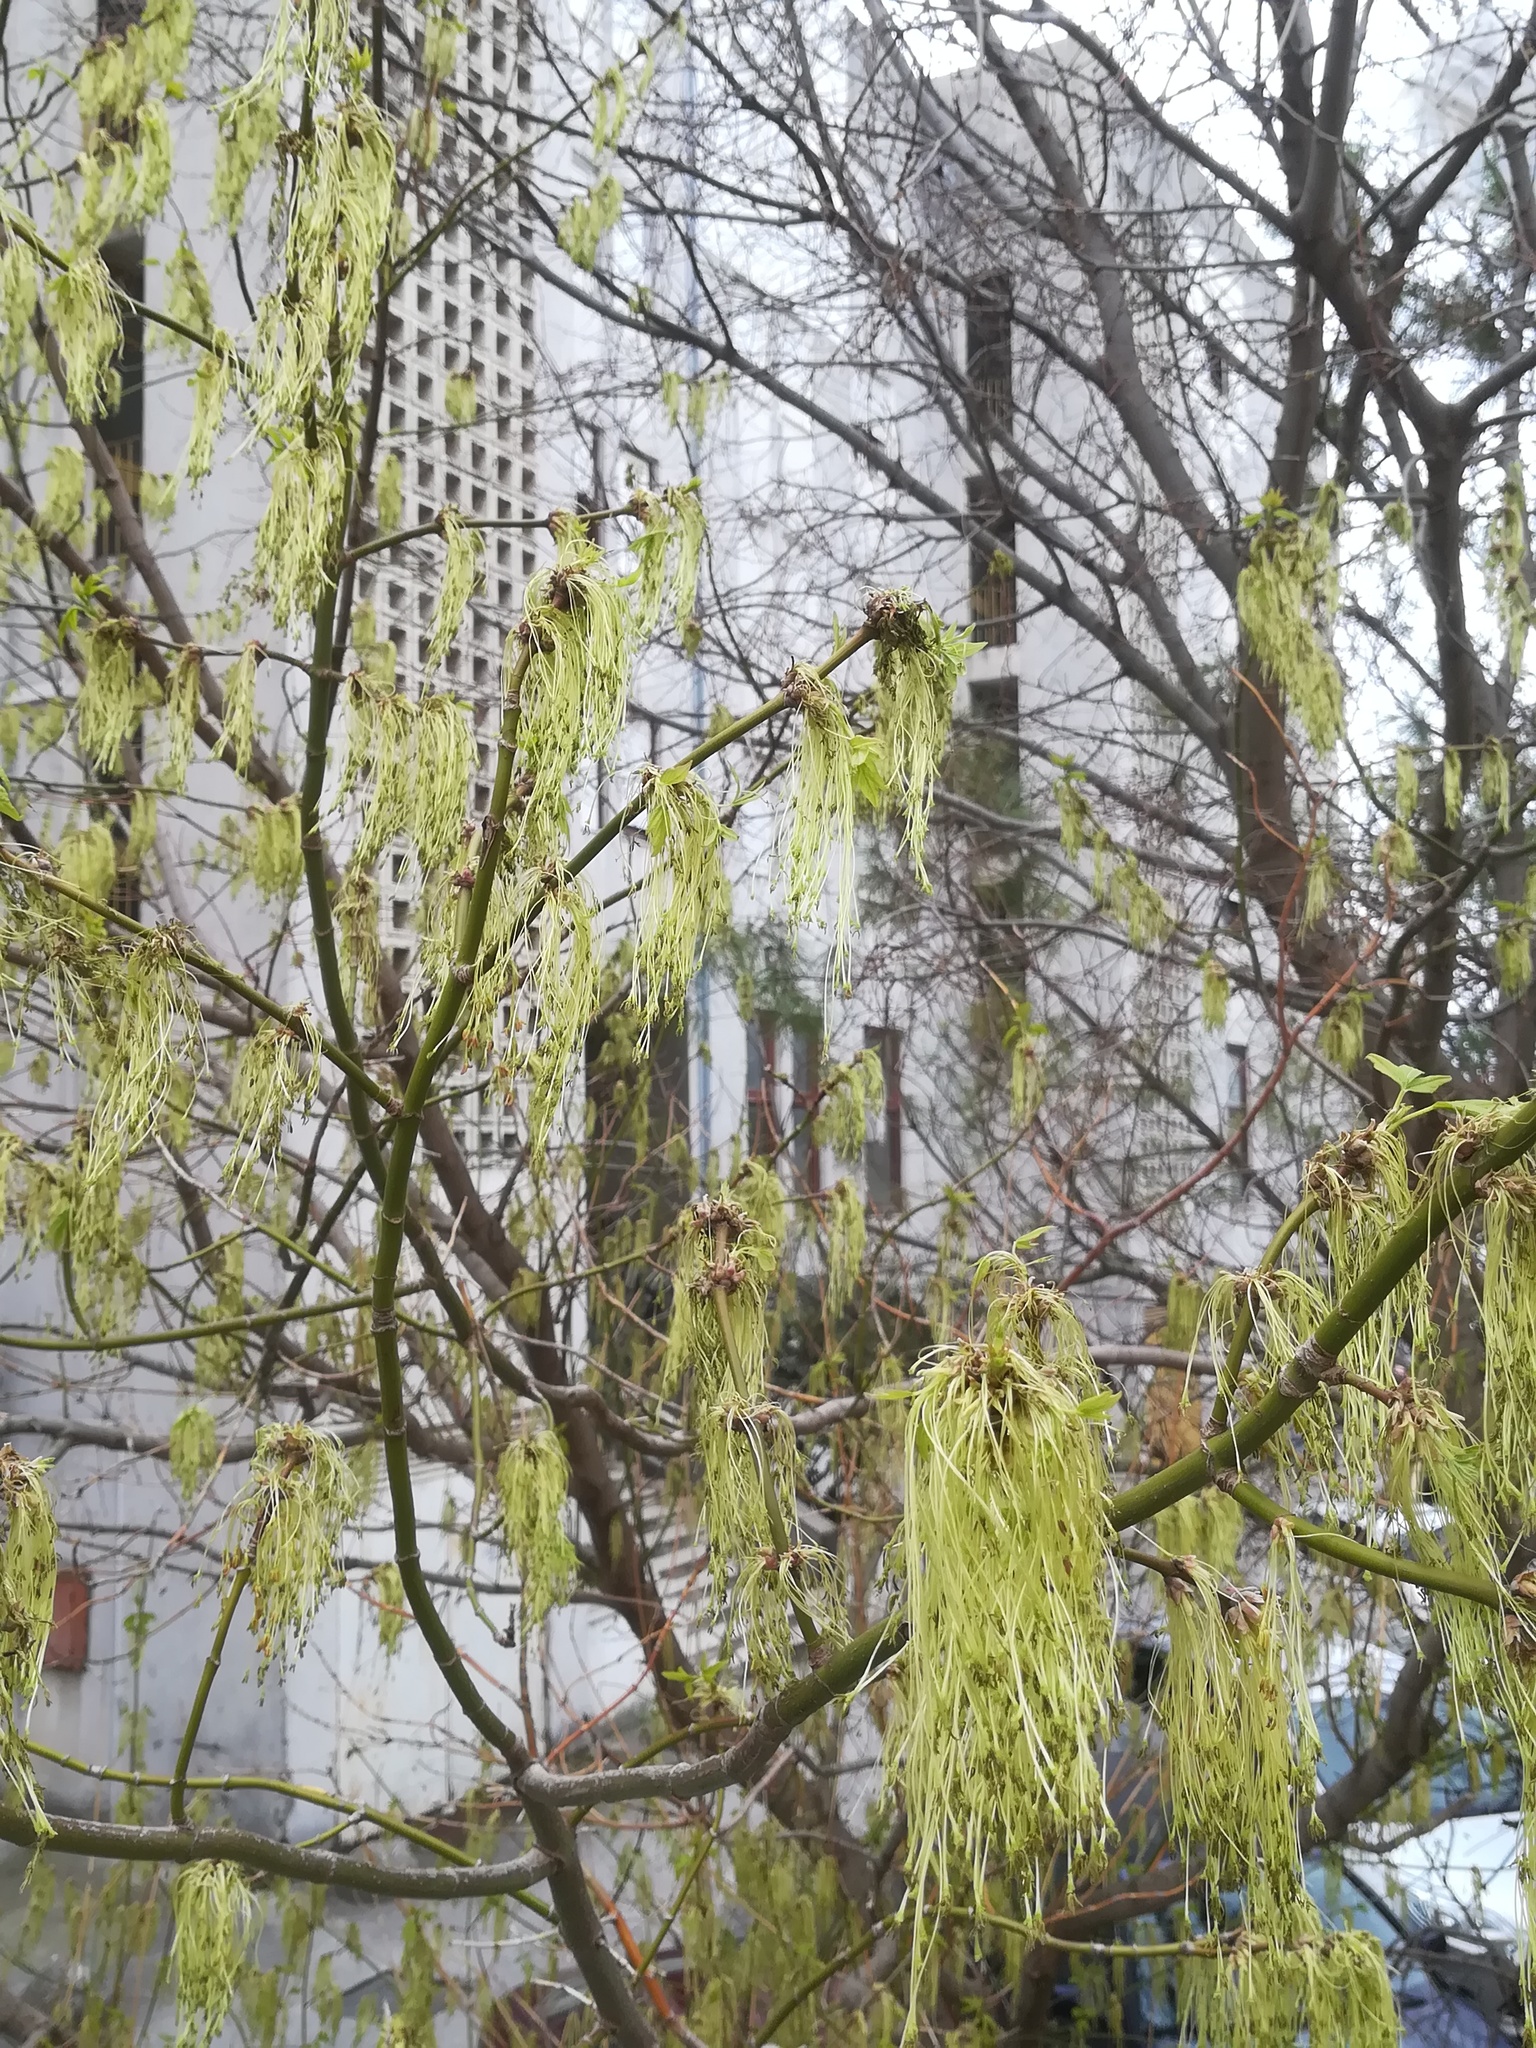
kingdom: Plantae
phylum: Tracheophyta
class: Magnoliopsida
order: Sapindales
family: Sapindaceae
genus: Acer
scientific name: Acer negundo
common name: Ashleaf maple
